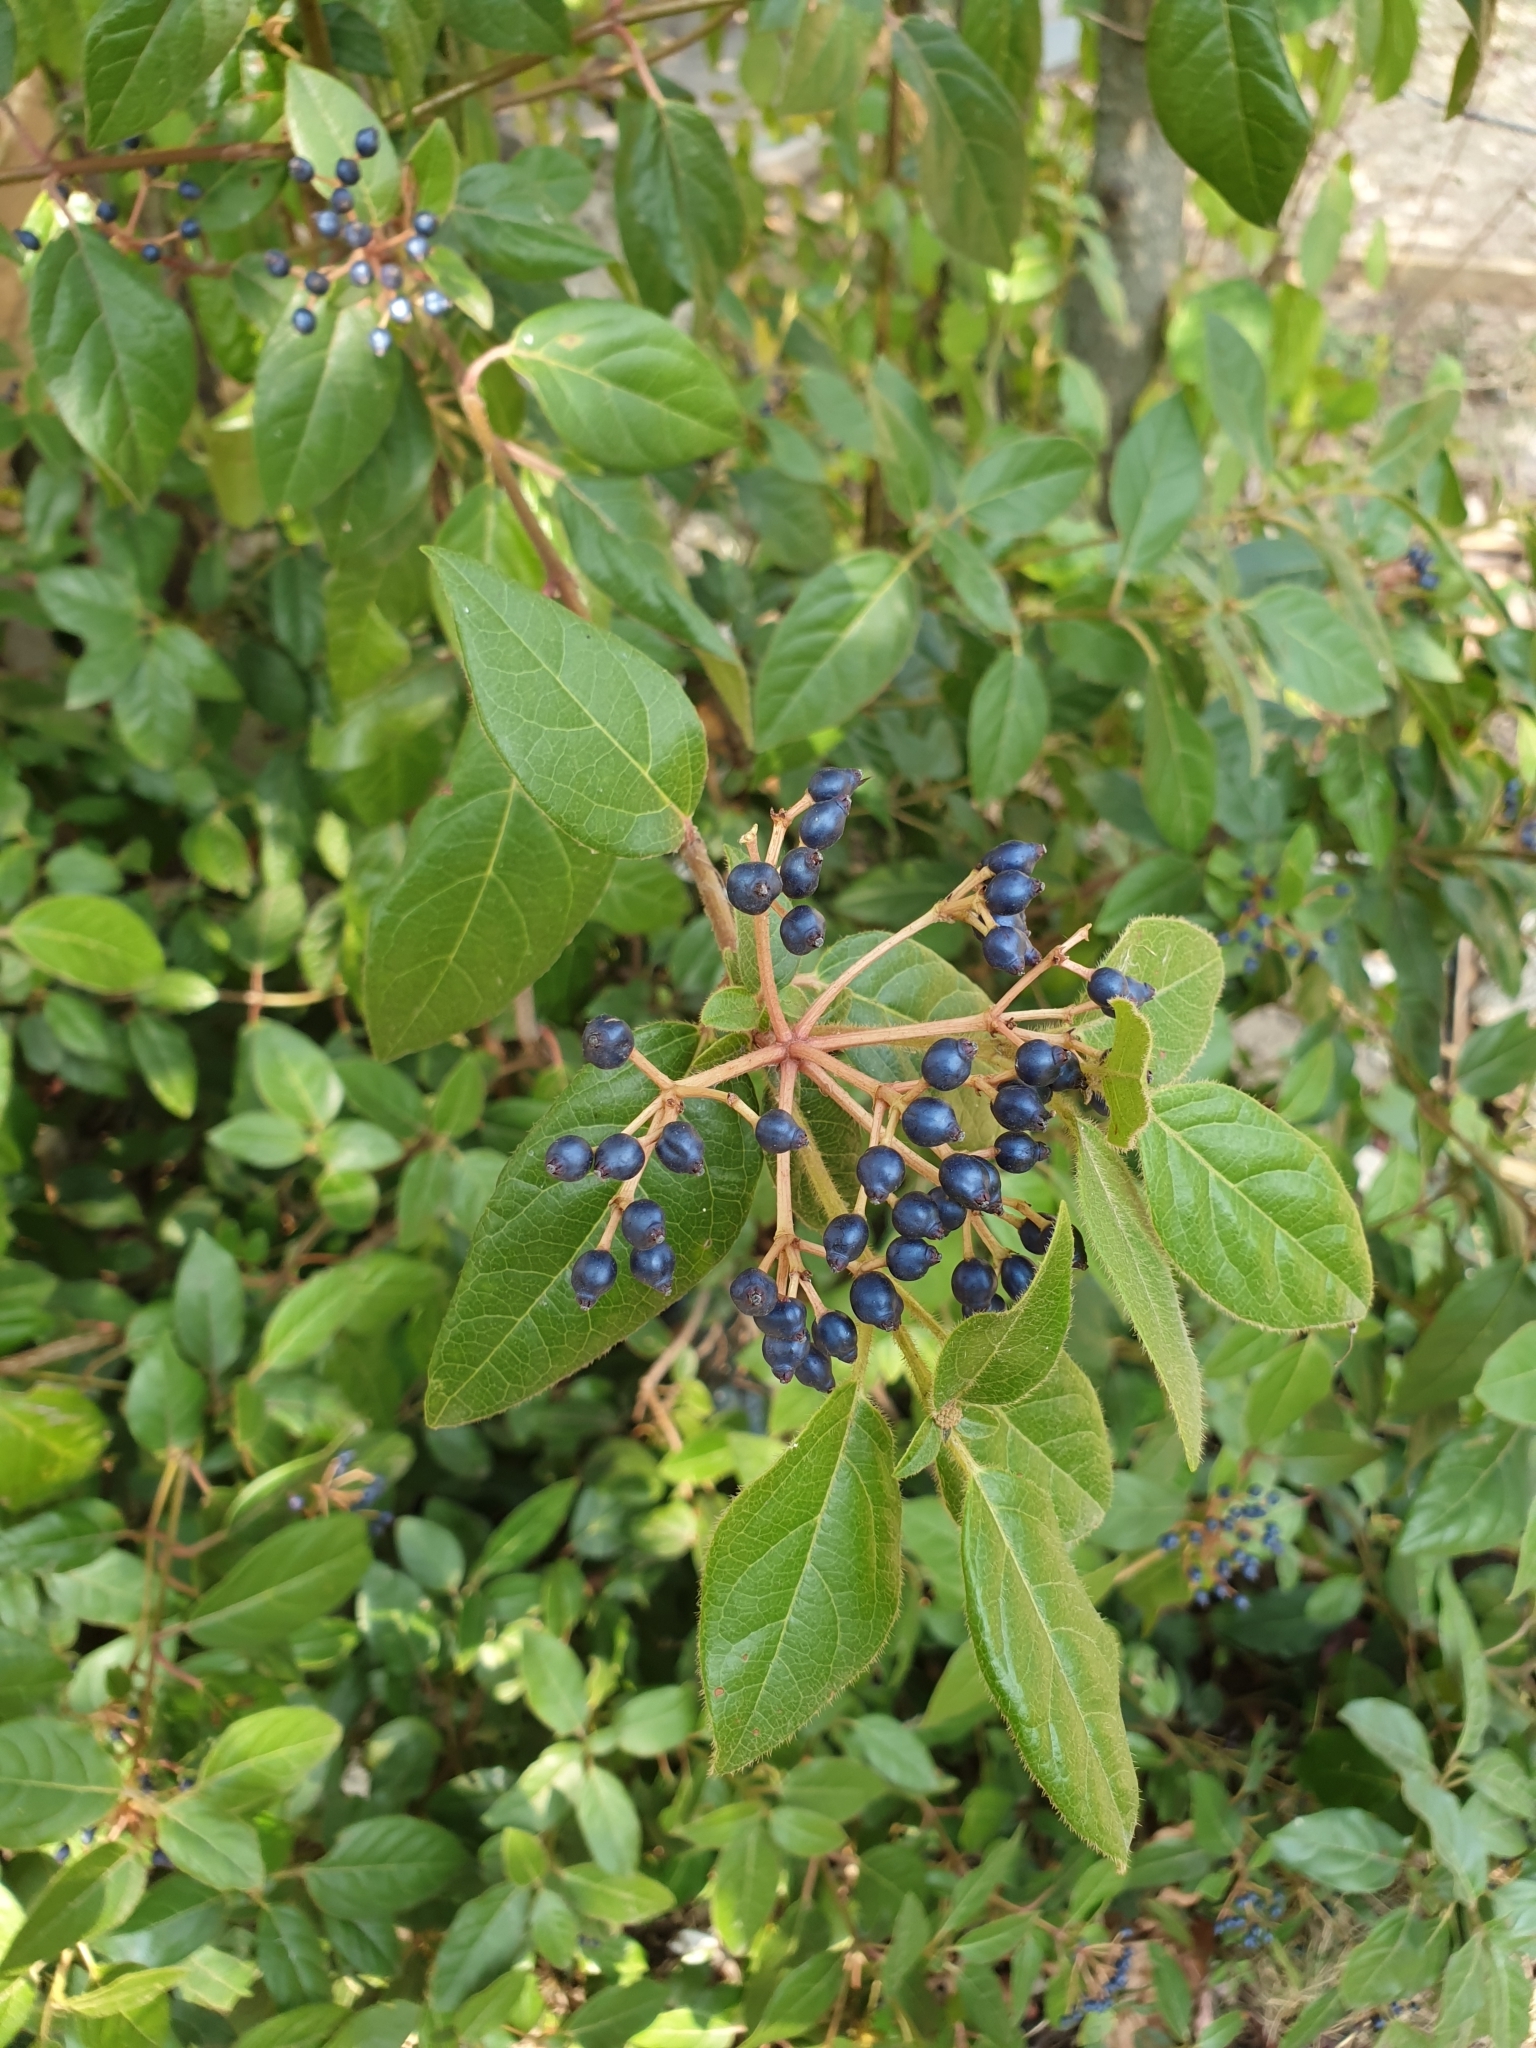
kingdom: Plantae
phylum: Tracheophyta
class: Magnoliopsida
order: Dipsacales
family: Viburnaceae
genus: Viburnum
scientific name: Viburnum tinus
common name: Laurustinus
